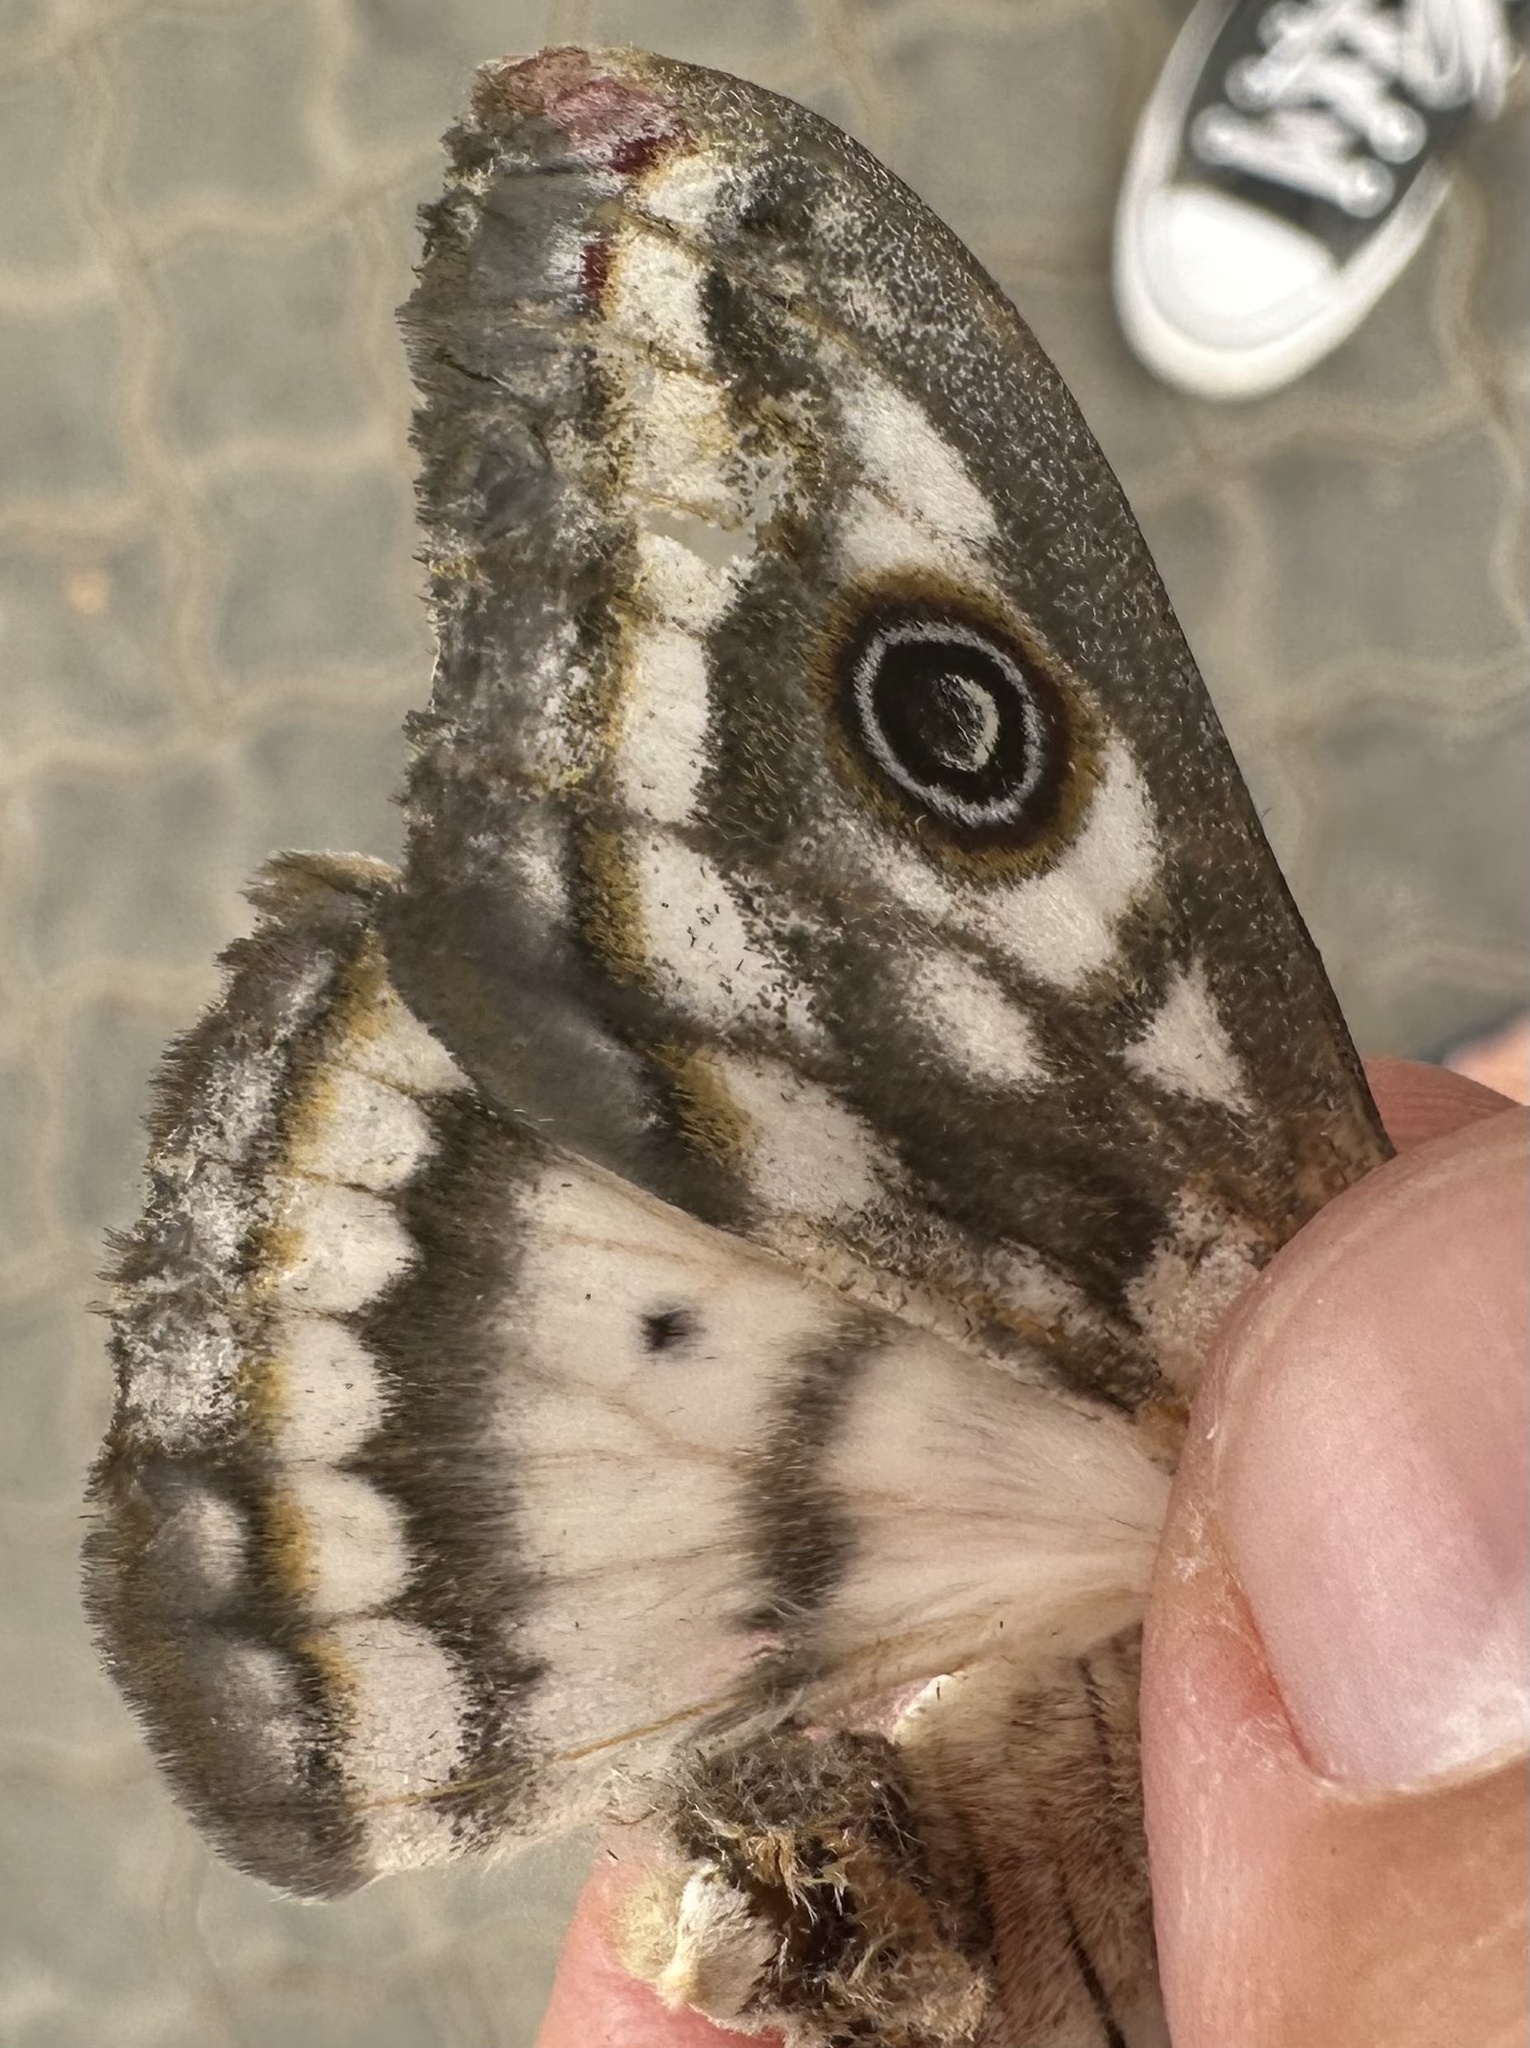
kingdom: Animalia
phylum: Arthropoda
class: Insecta
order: Lepidoptera
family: Saturniidae
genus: Heniocha
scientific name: Heniocha bioculata
